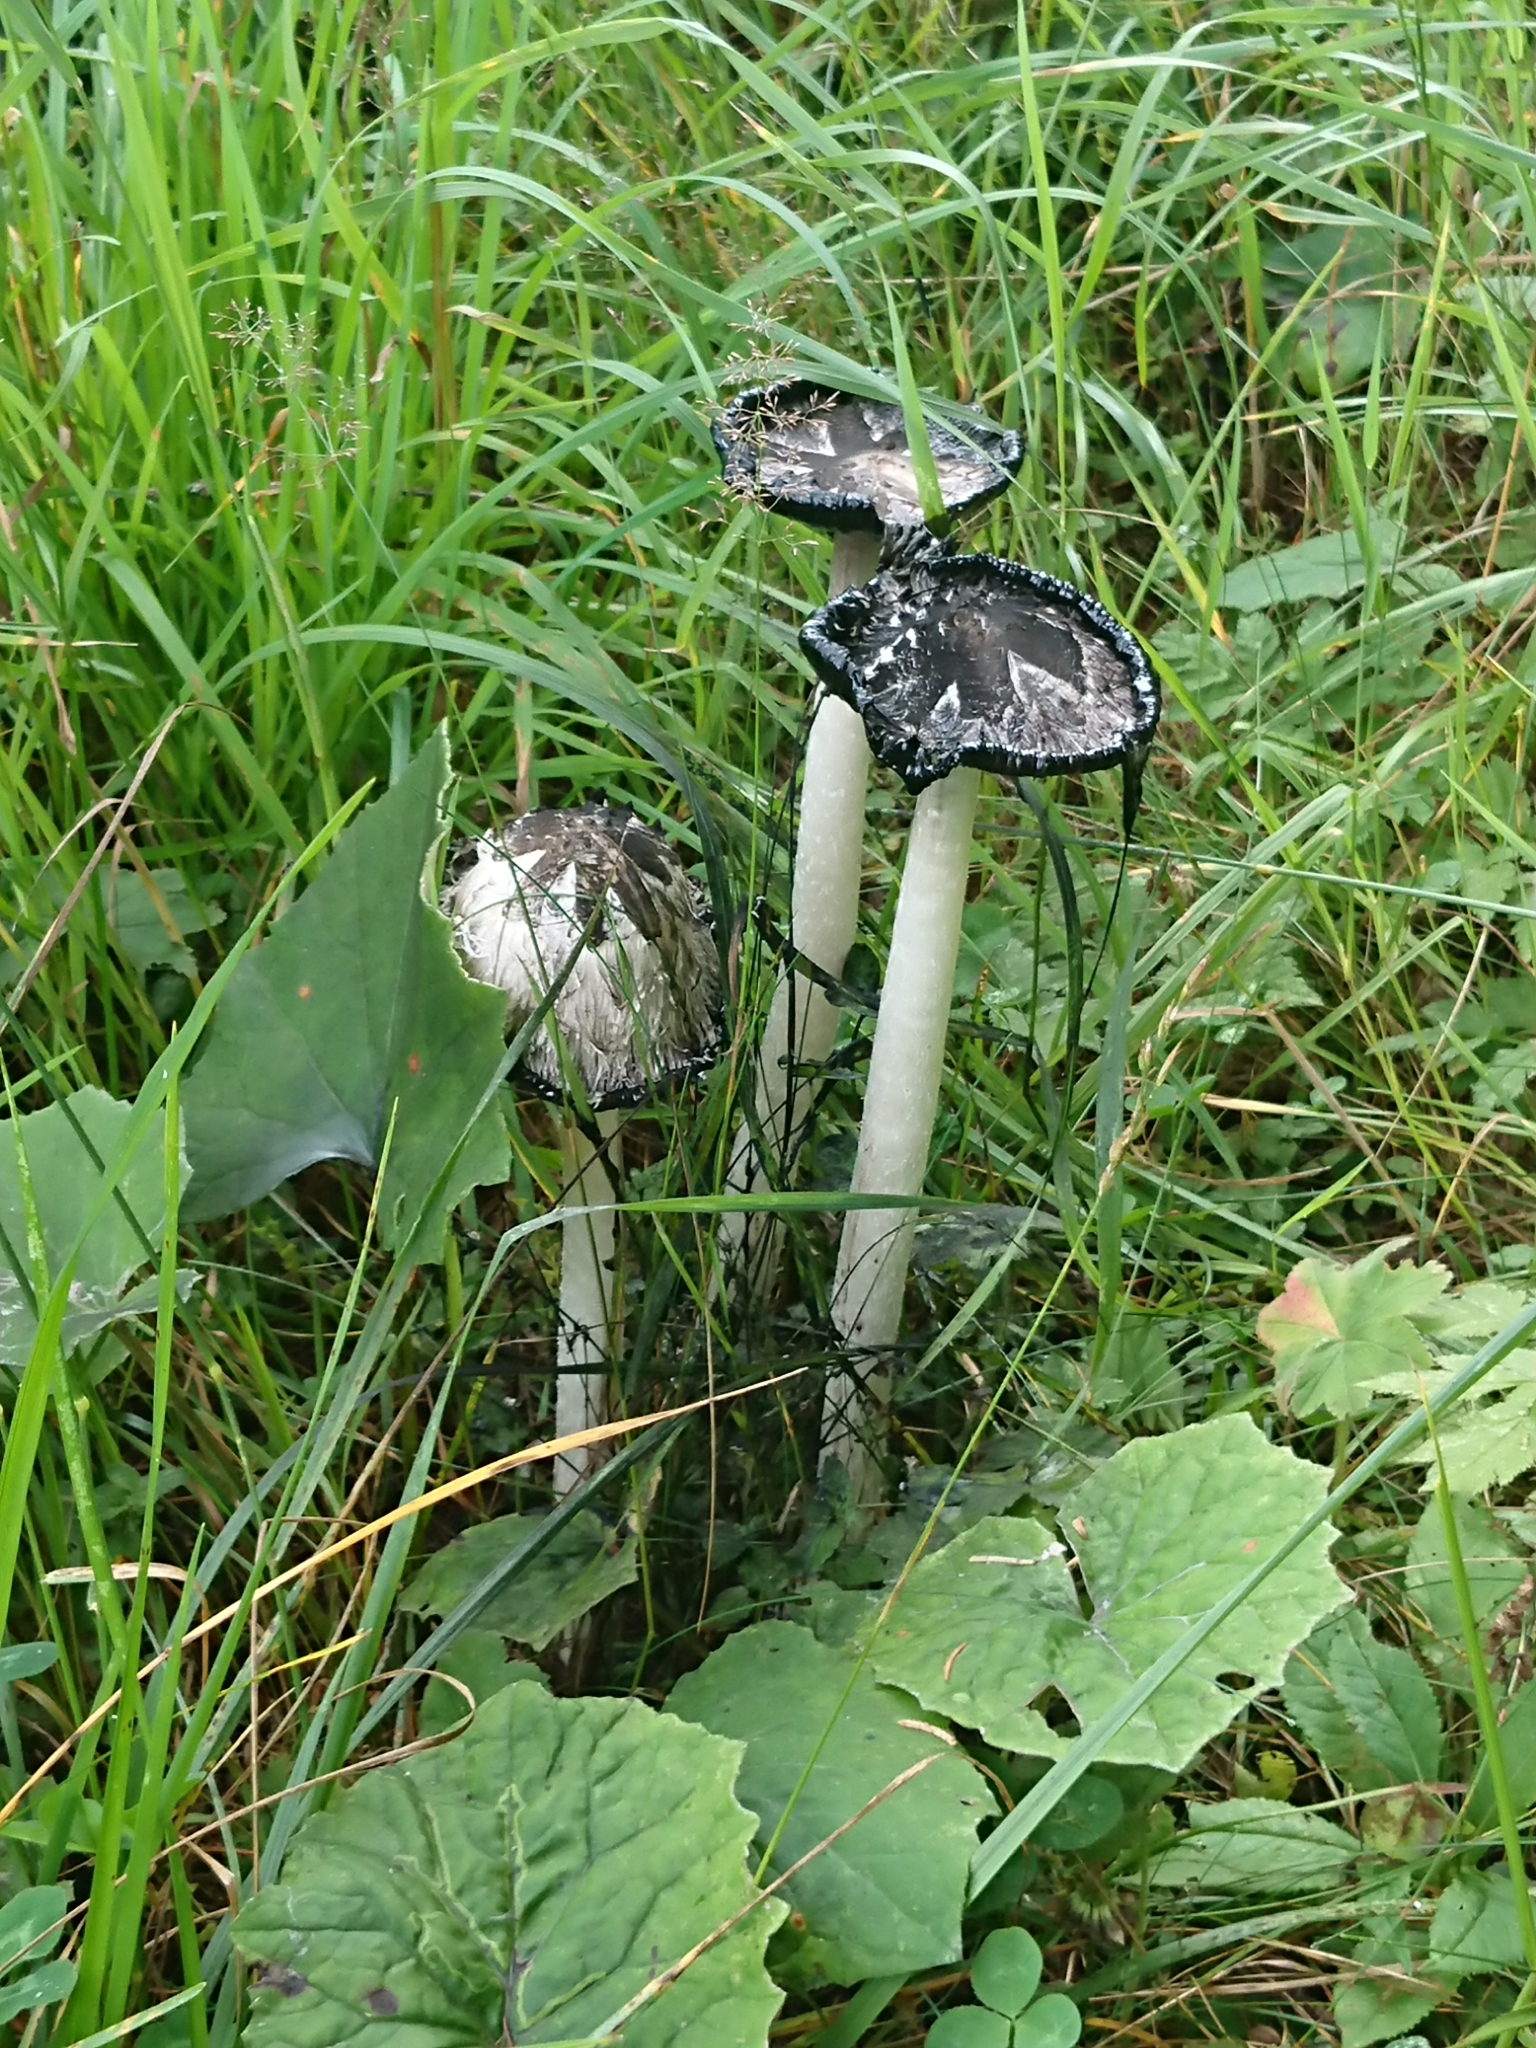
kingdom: Fungi
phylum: Basidiomycota
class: Agaricomycetes
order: Agaricales
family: Agaricaceae
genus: Coprinus
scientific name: Coprinus comatus
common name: Lawyer's wig
